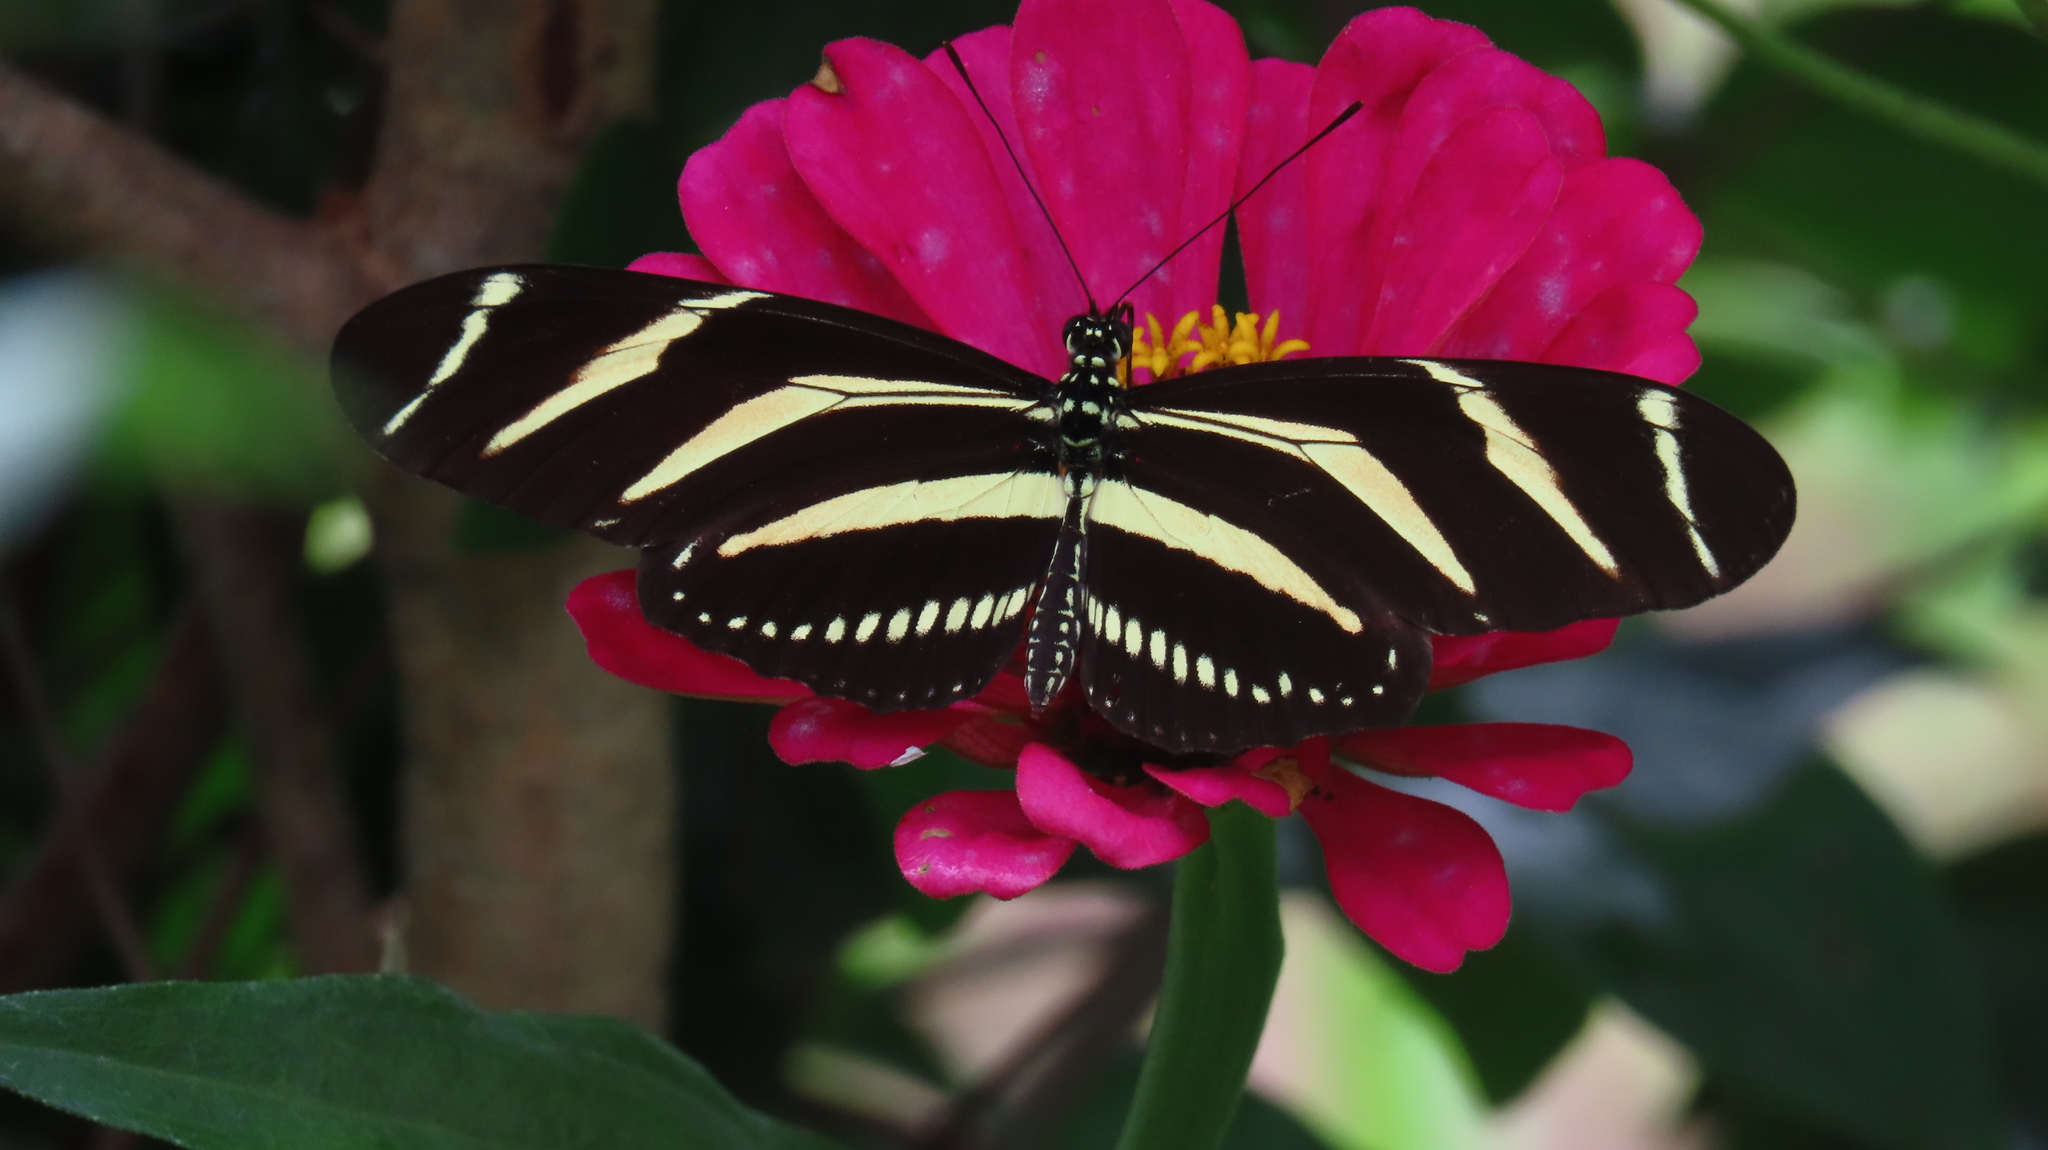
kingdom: Animalia
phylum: Arthropoda
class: Insecta
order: Lepidoptera
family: Nymphalidae
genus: Heliconius
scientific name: Heliconius charithonia
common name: Zebra long wing
